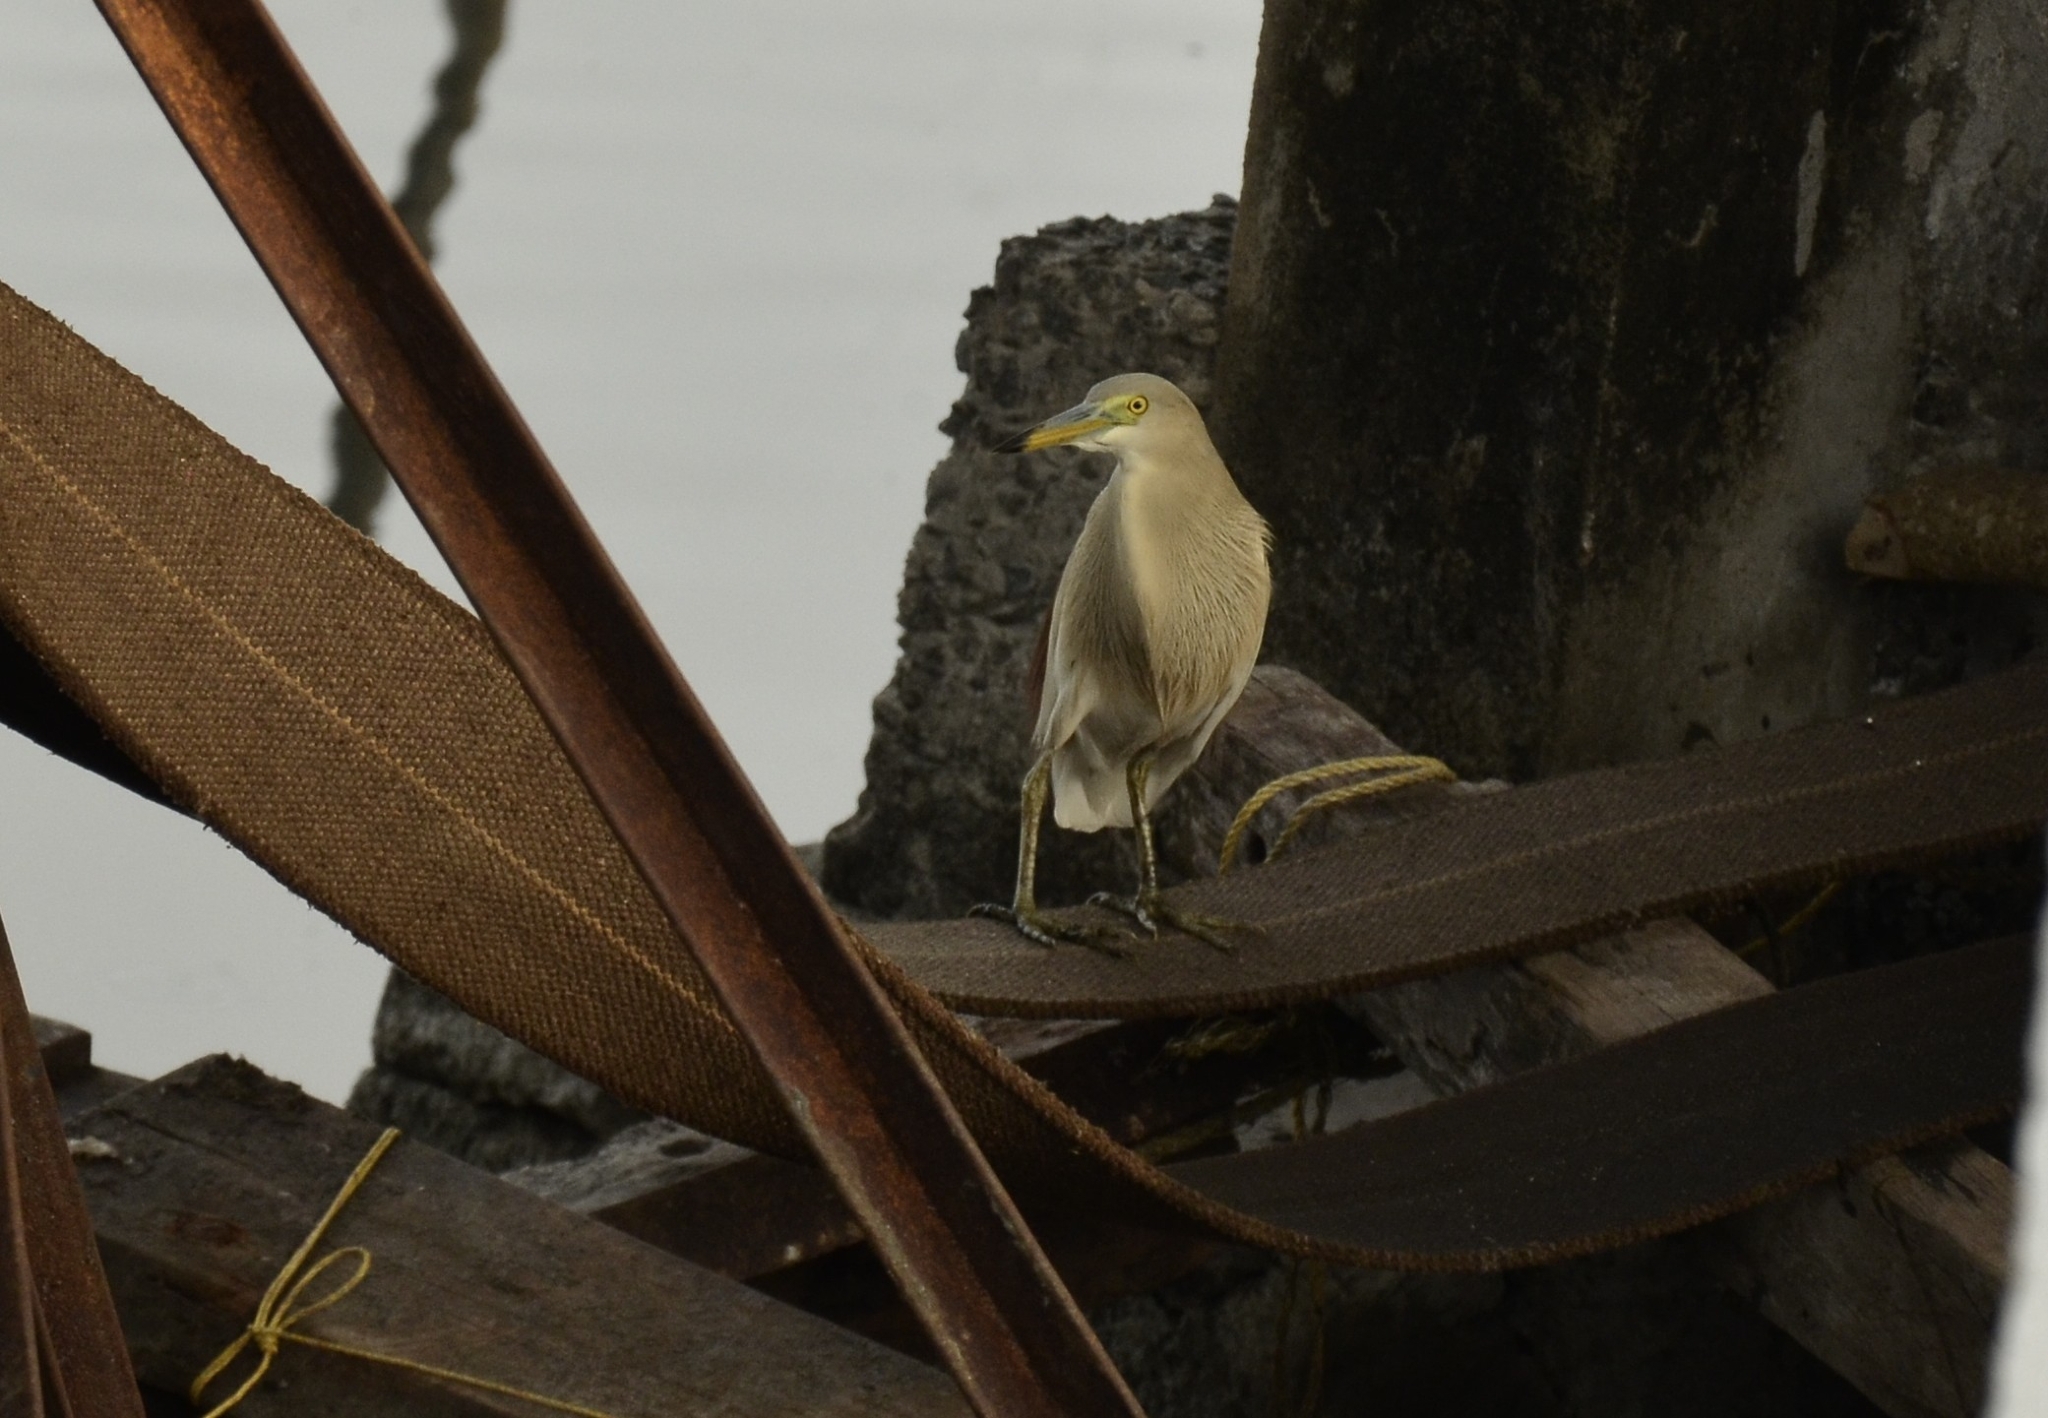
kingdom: Animalia
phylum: Chordata
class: Aves
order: Pelecaniformes
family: Ardeidae
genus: Ardeola
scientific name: Ardeola grayii
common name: Indian pond heron
